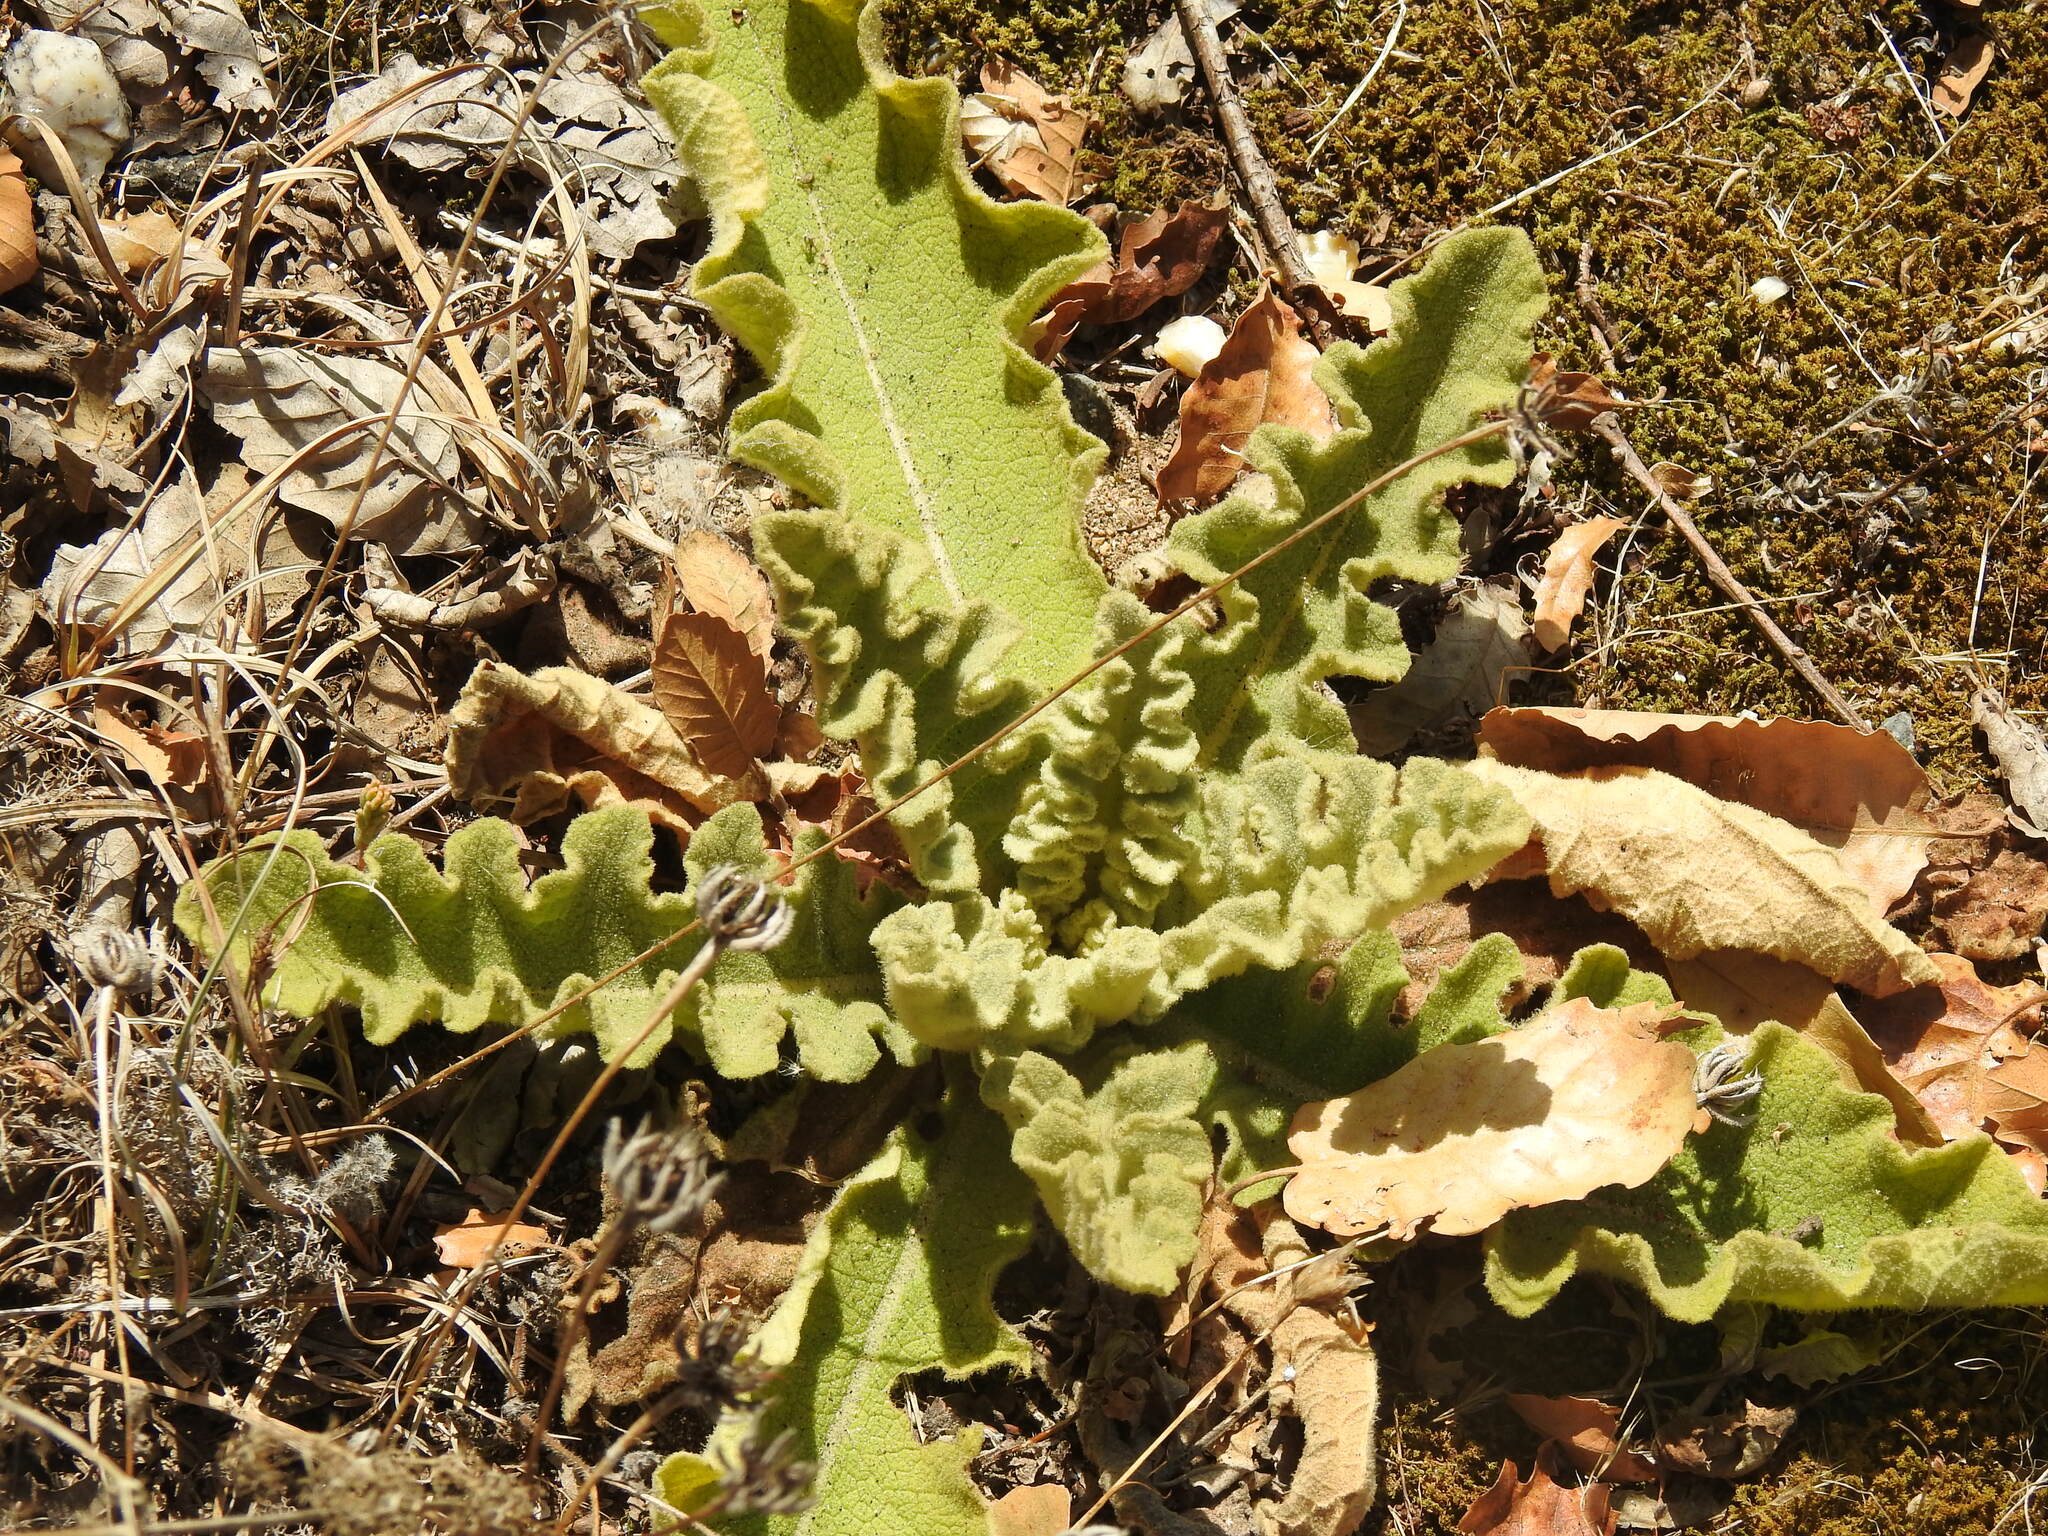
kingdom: Plantae
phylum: Tracheophyta
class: Magnoliopsida
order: Lamiales
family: Scrophulariaceae
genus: Verbascum
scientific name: Verbascum sinuatum
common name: Wavyleaf mullein
